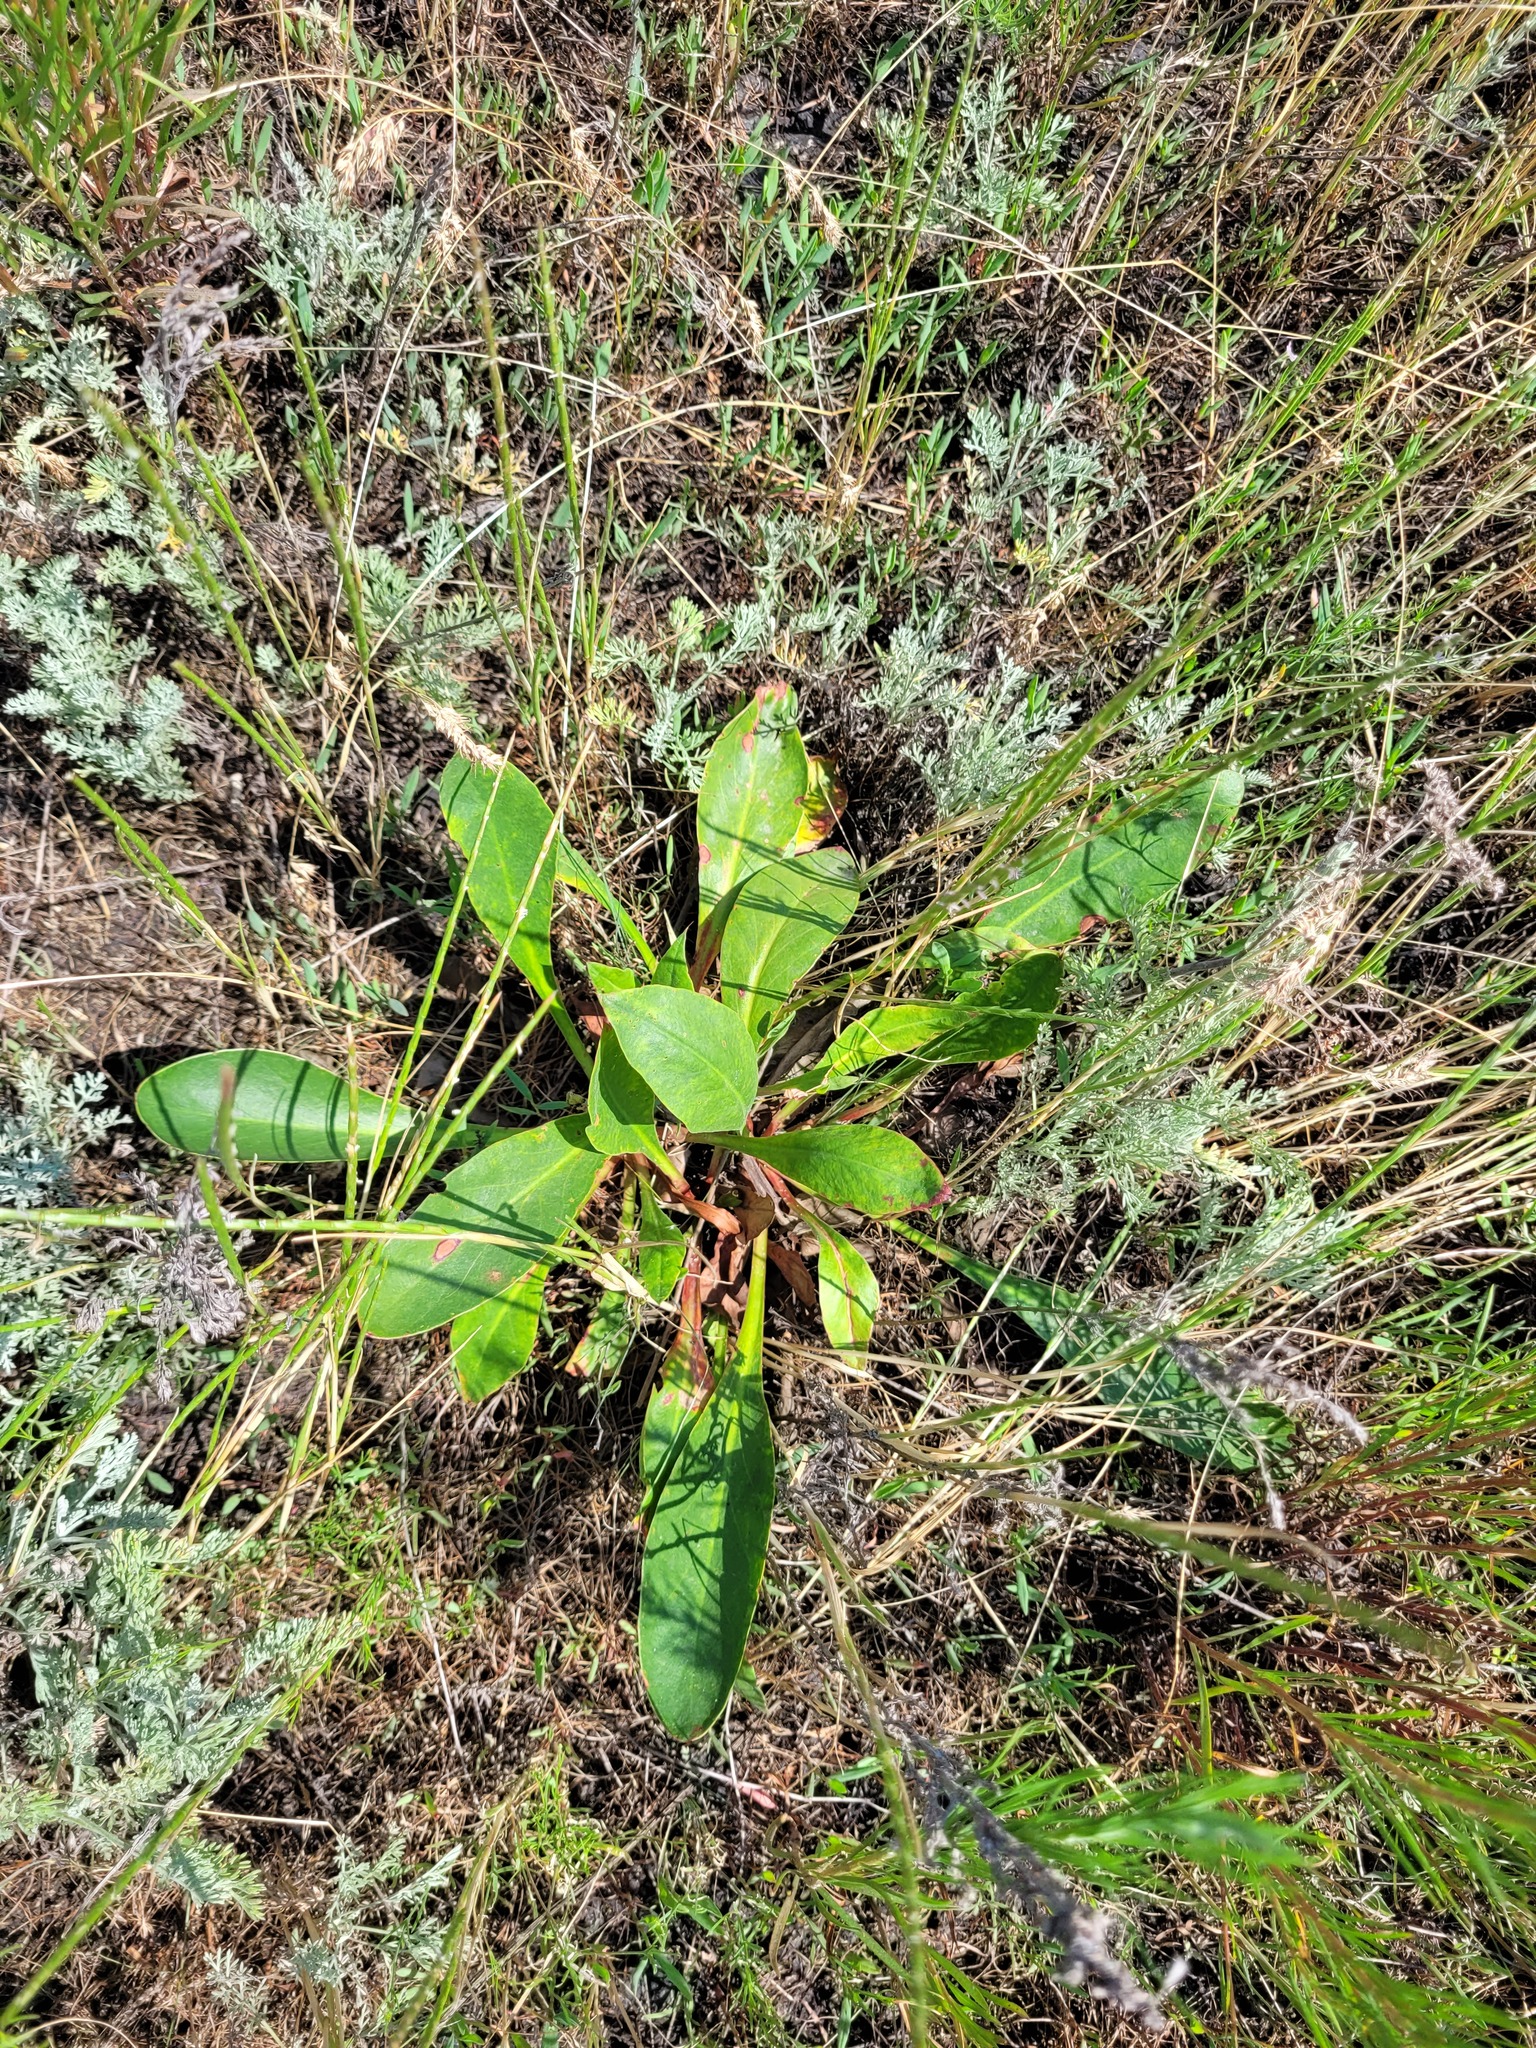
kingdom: Plantae
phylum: Tracheophyta
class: Magnoliopsida
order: Caryophyllales
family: Plumbaginaceae
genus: Limonium
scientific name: Limonium tomentellum
